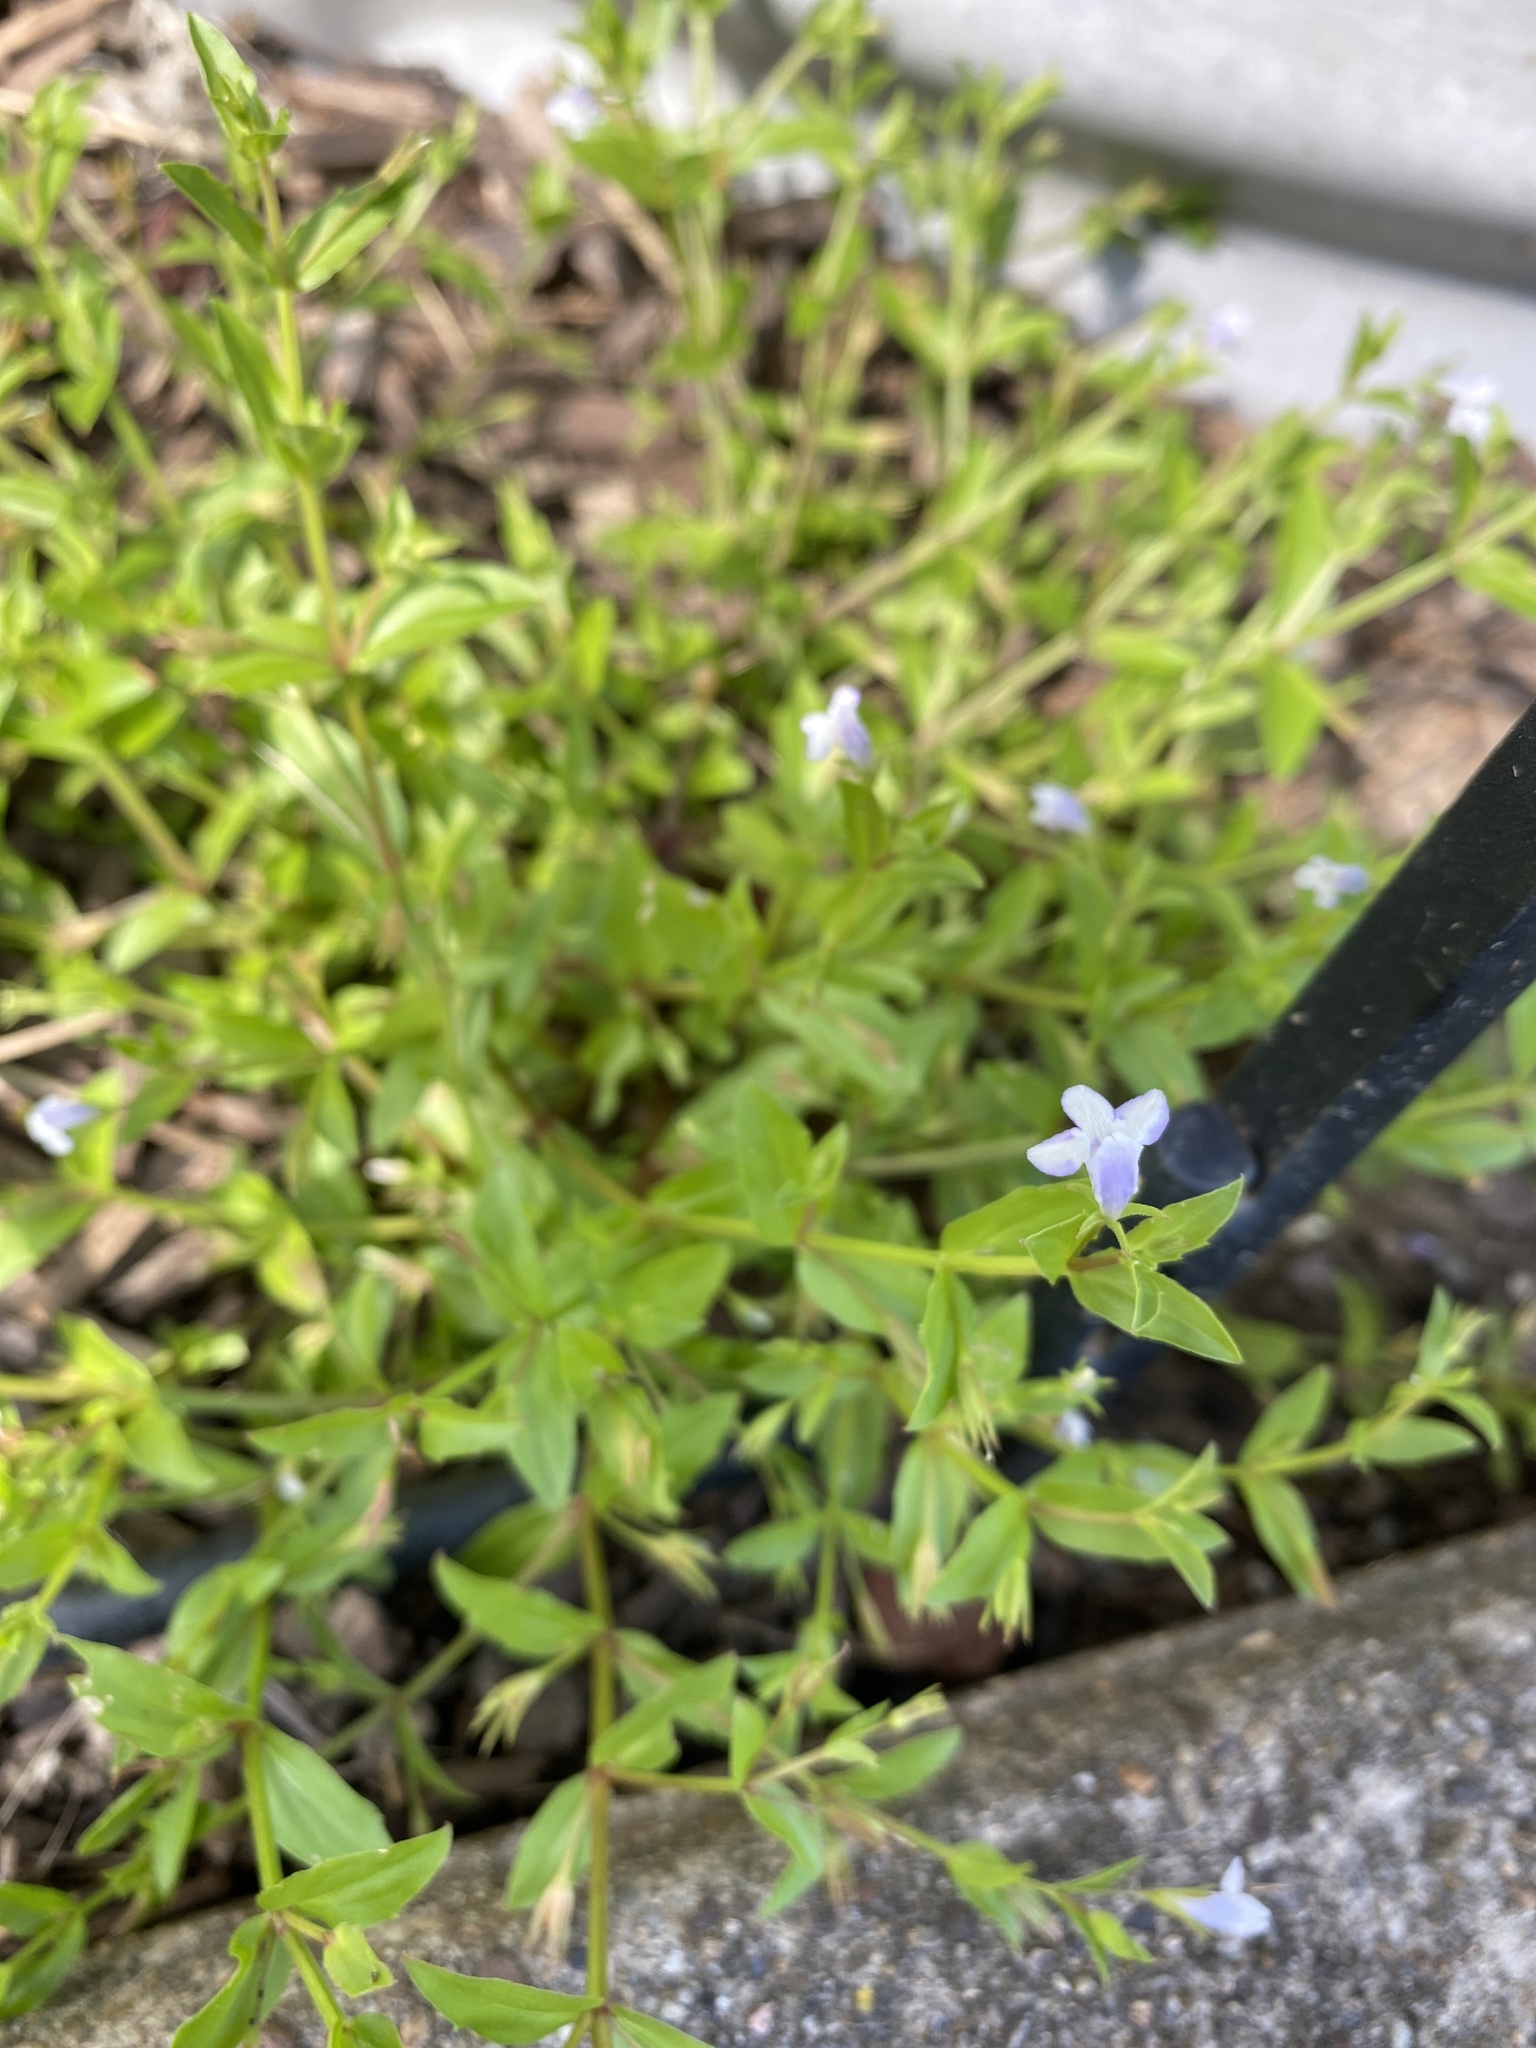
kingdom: Plantae
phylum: Tracheophyta
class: Magnoliopsida
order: Lamiales
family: Linderniaceae
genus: Lindernia
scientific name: Lindernia dubia
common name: Annual false pimpernel
